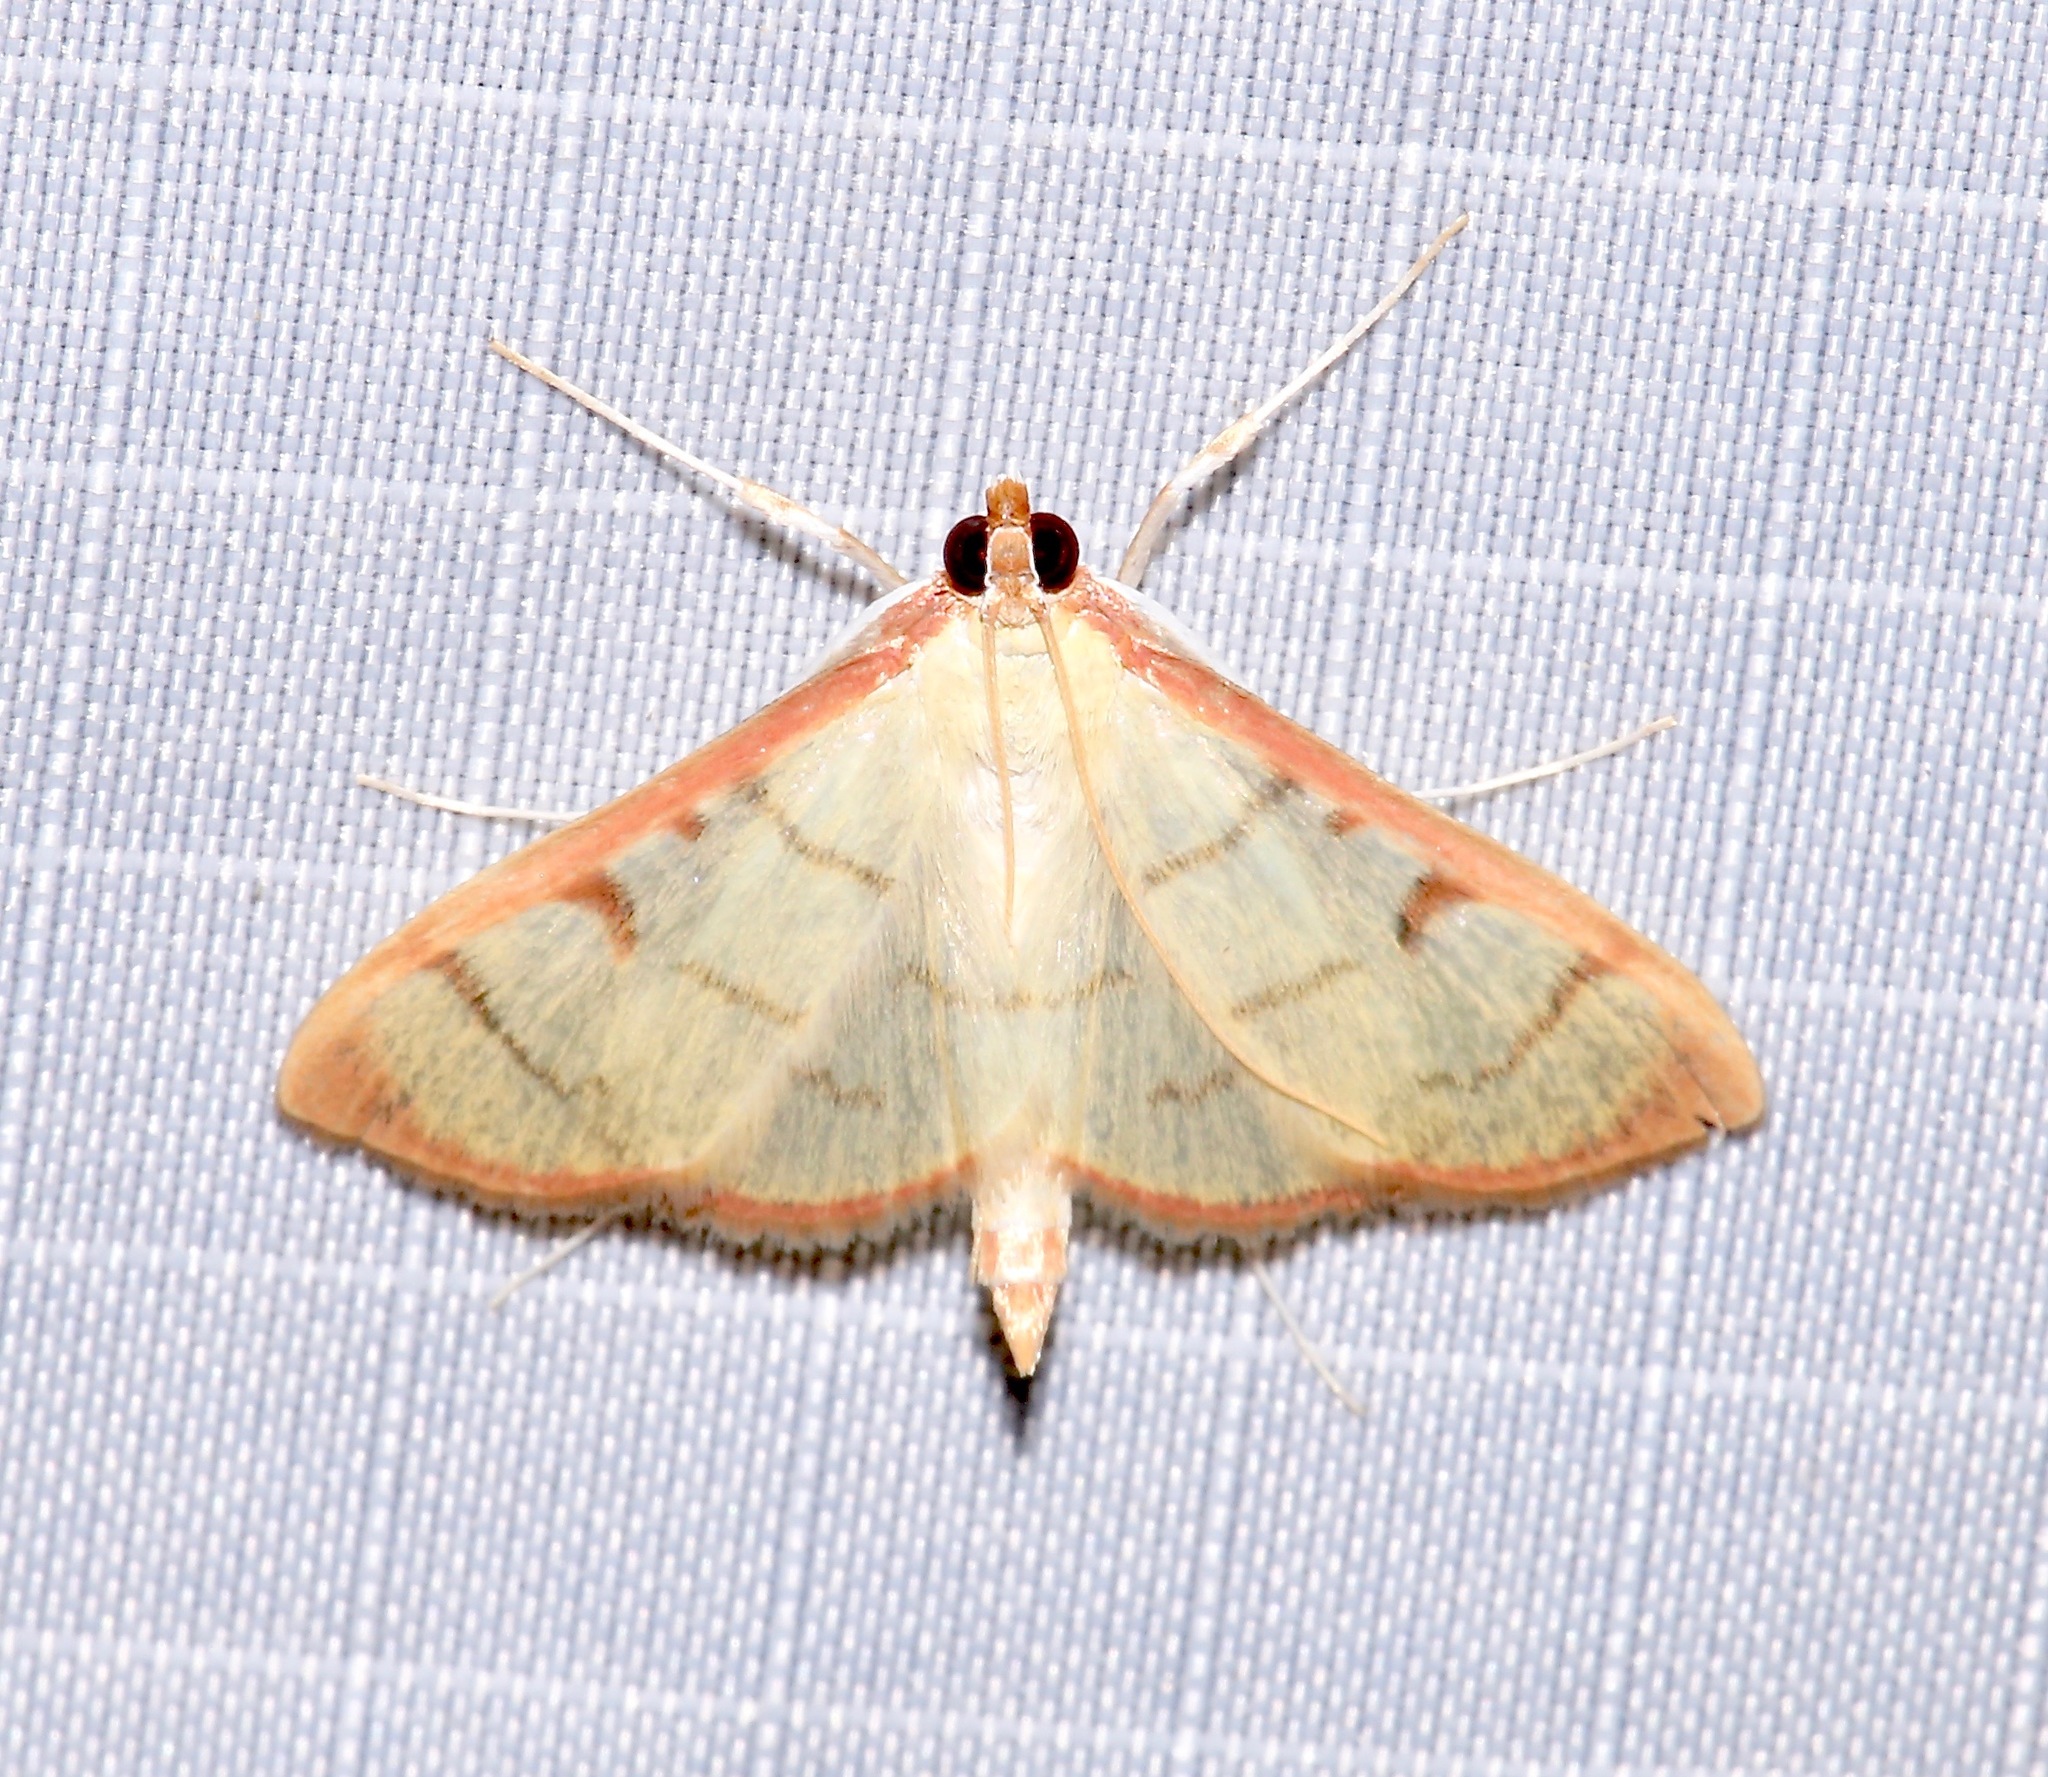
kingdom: Animalia
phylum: Arthropoda
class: Insecta
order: Lepidoptera
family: Crambidae
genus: Sarabotys
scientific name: Sarabotys
